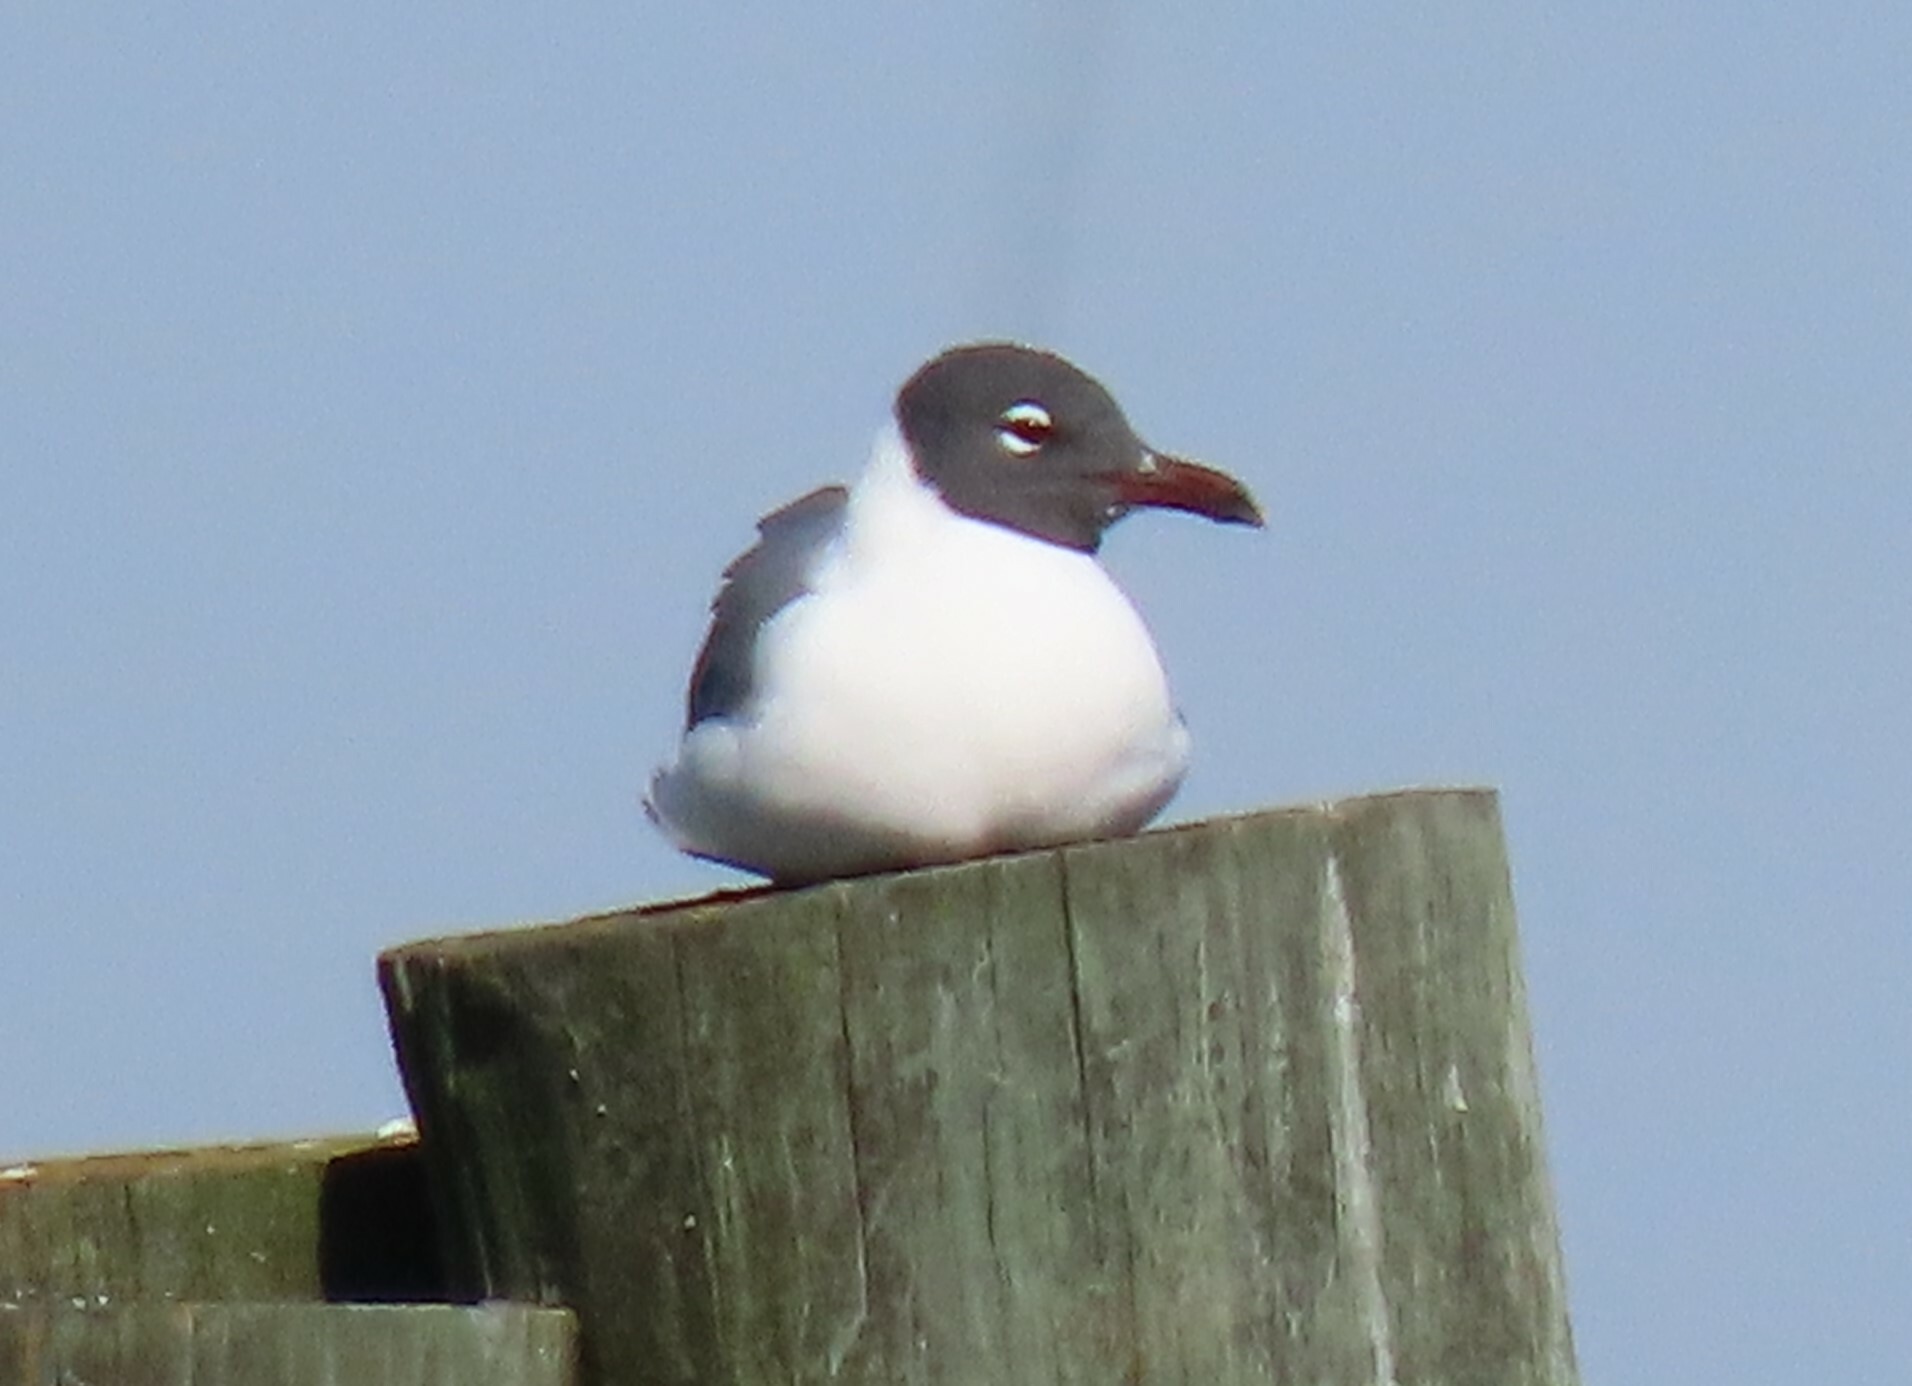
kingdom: Animalia
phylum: Chordata
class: Aves
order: Charadriiformes
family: Laridae
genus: Leucophaeus
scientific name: Leucophaeus atricilla
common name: Laughing gull
